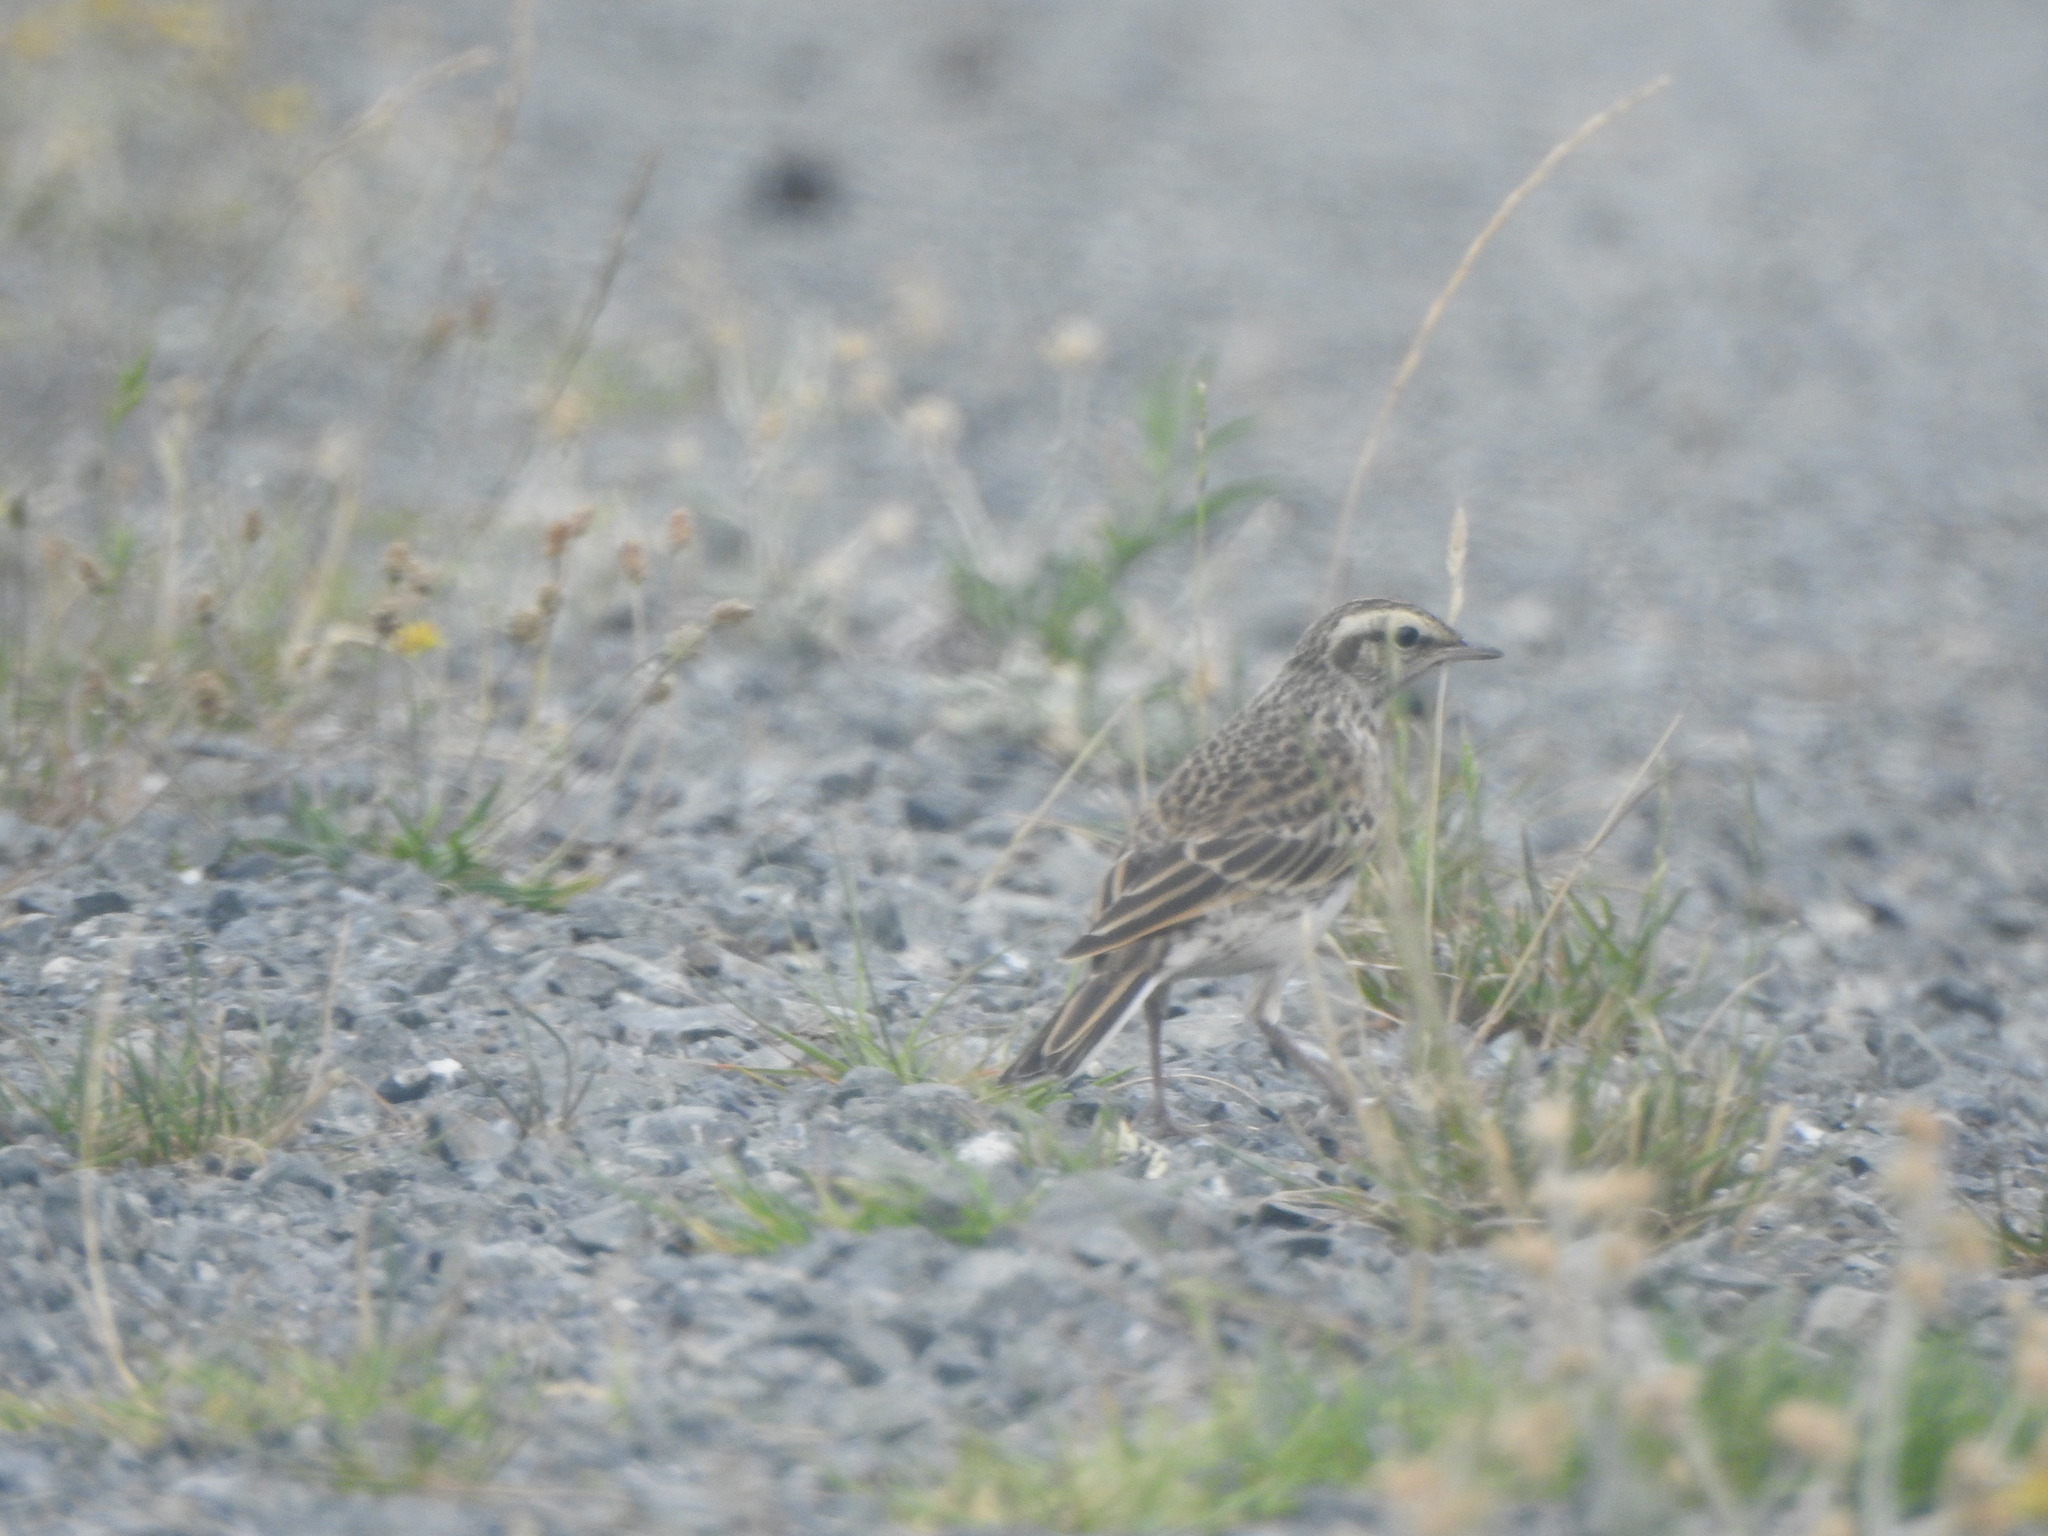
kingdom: Animalia
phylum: Chordata
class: Aves
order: Passeriformes
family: Motacillidae
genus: Anthus
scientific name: Anthus novaeseelandiae
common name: New zealand pipit
